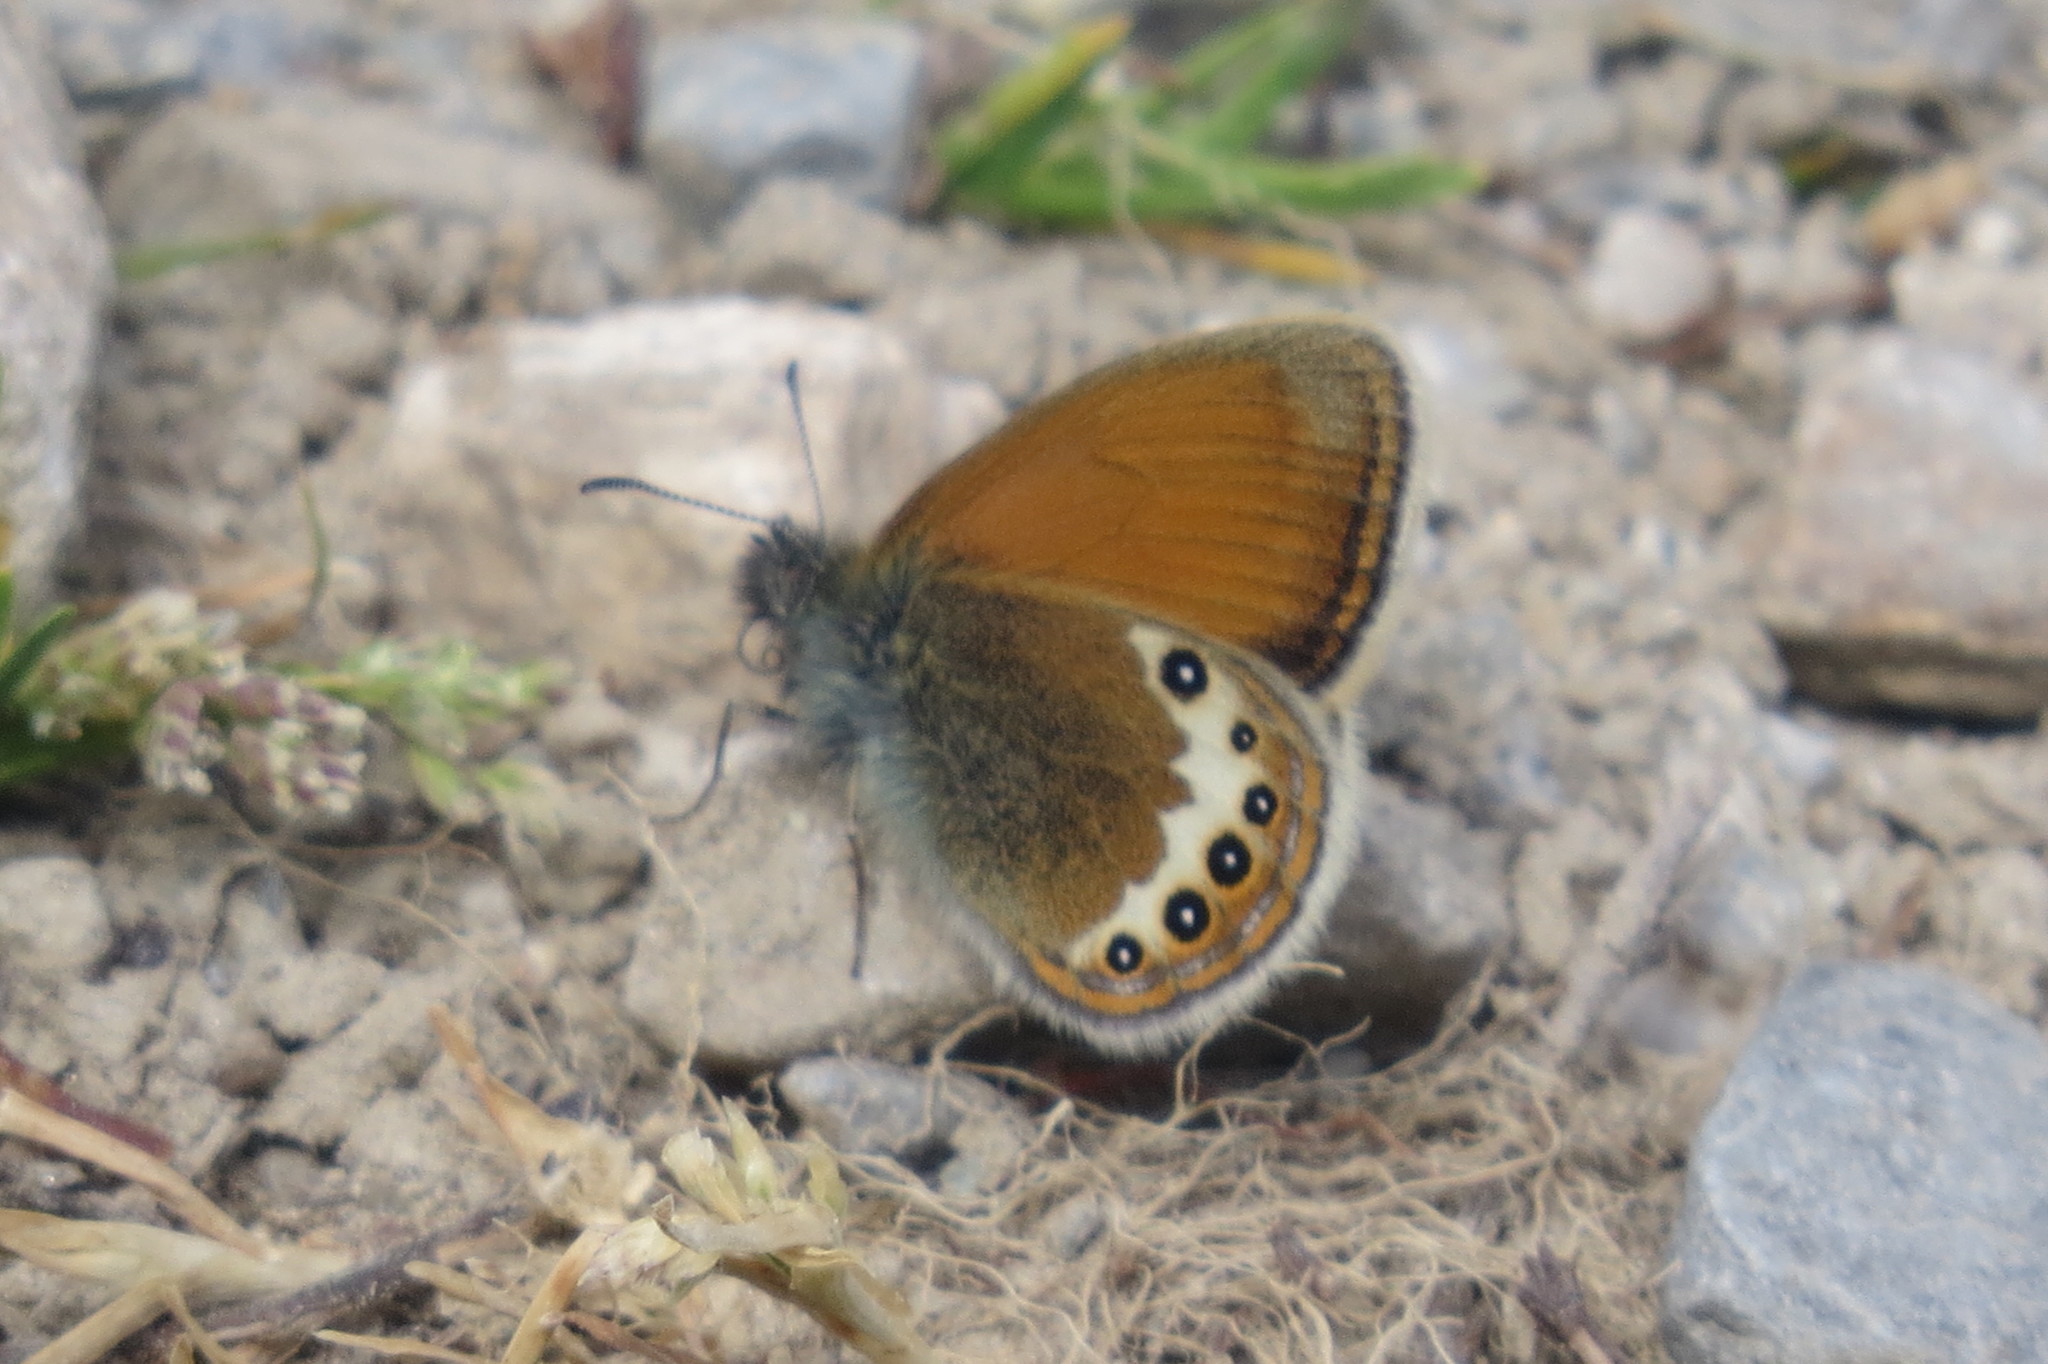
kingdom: Animalia
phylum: Arthropoda
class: Insecta
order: Lepidoptera
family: Nymphalidae
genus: Coenonympha
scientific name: Coenonympha
